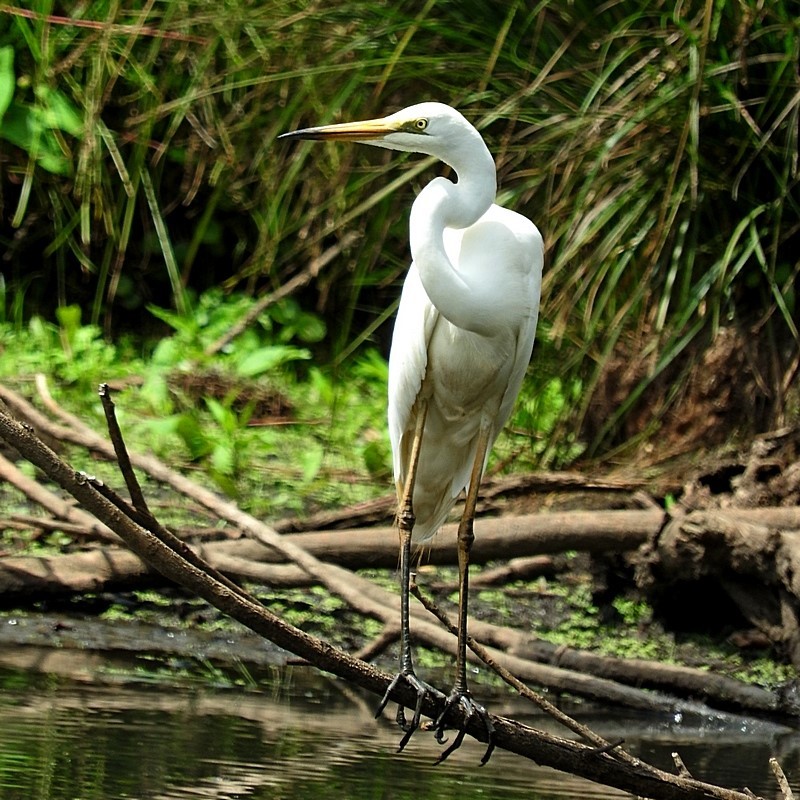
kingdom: Animalia
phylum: Chordata
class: Aves
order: Pelecaniformes
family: Ardeidae
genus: Ardea
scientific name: Ardea alba
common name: Great egret
